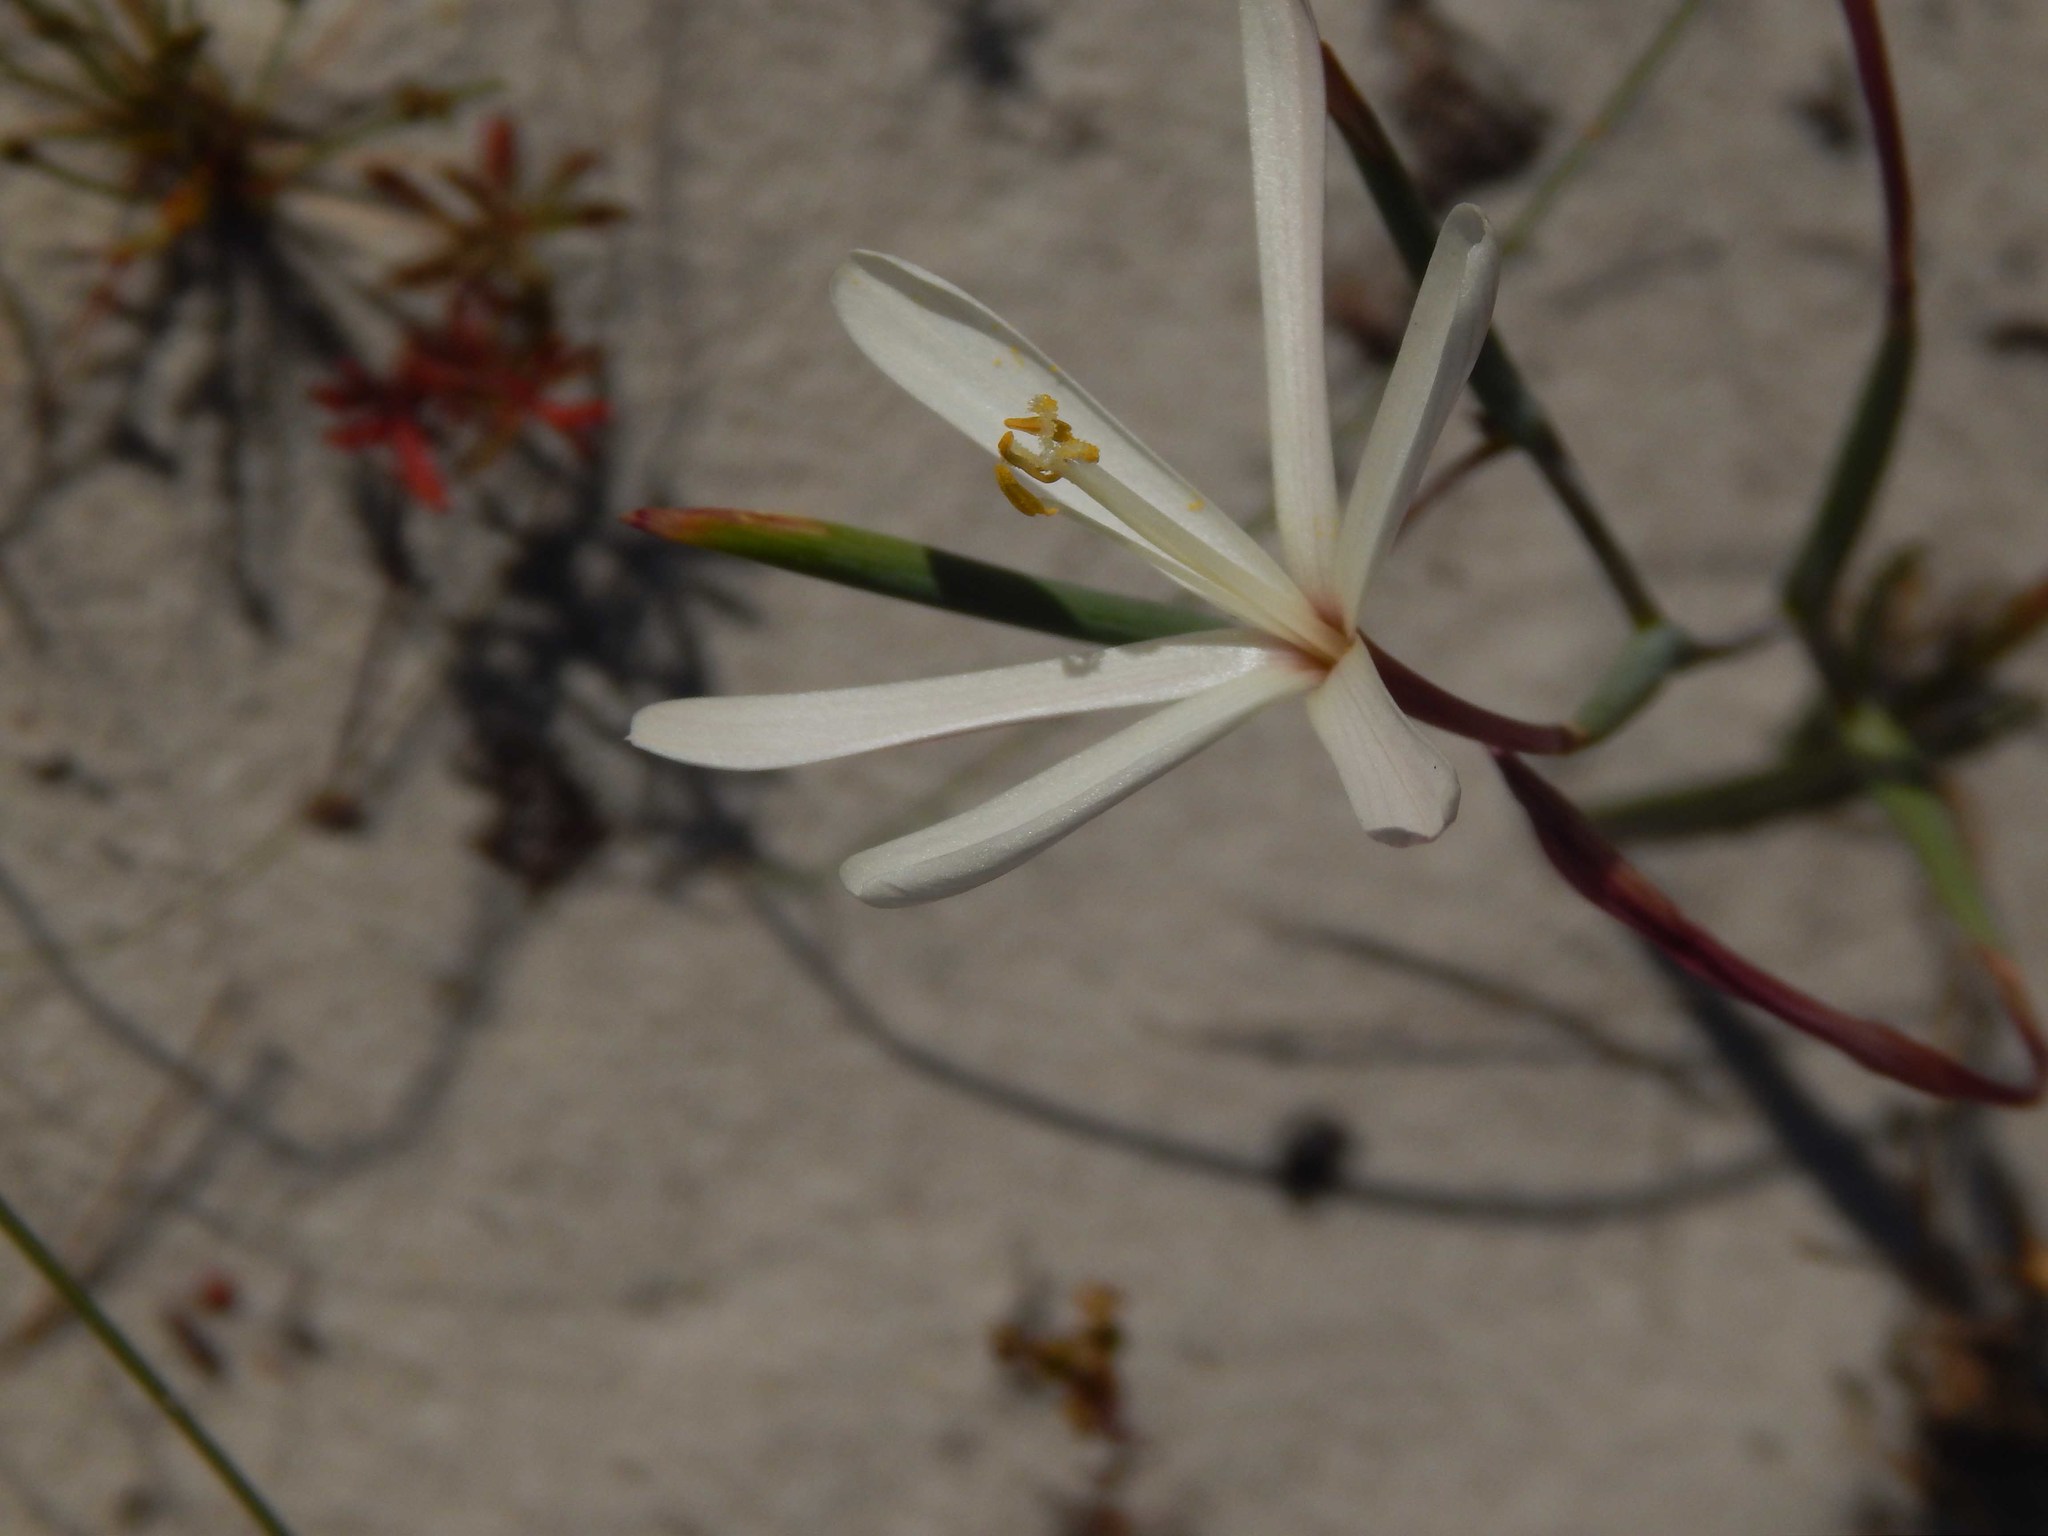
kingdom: Plantae
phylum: Tracheophyta
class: Liliopsida
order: Asparagales
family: Iridaceae
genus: Geissorhiza
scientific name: Geissorhiza tenella
